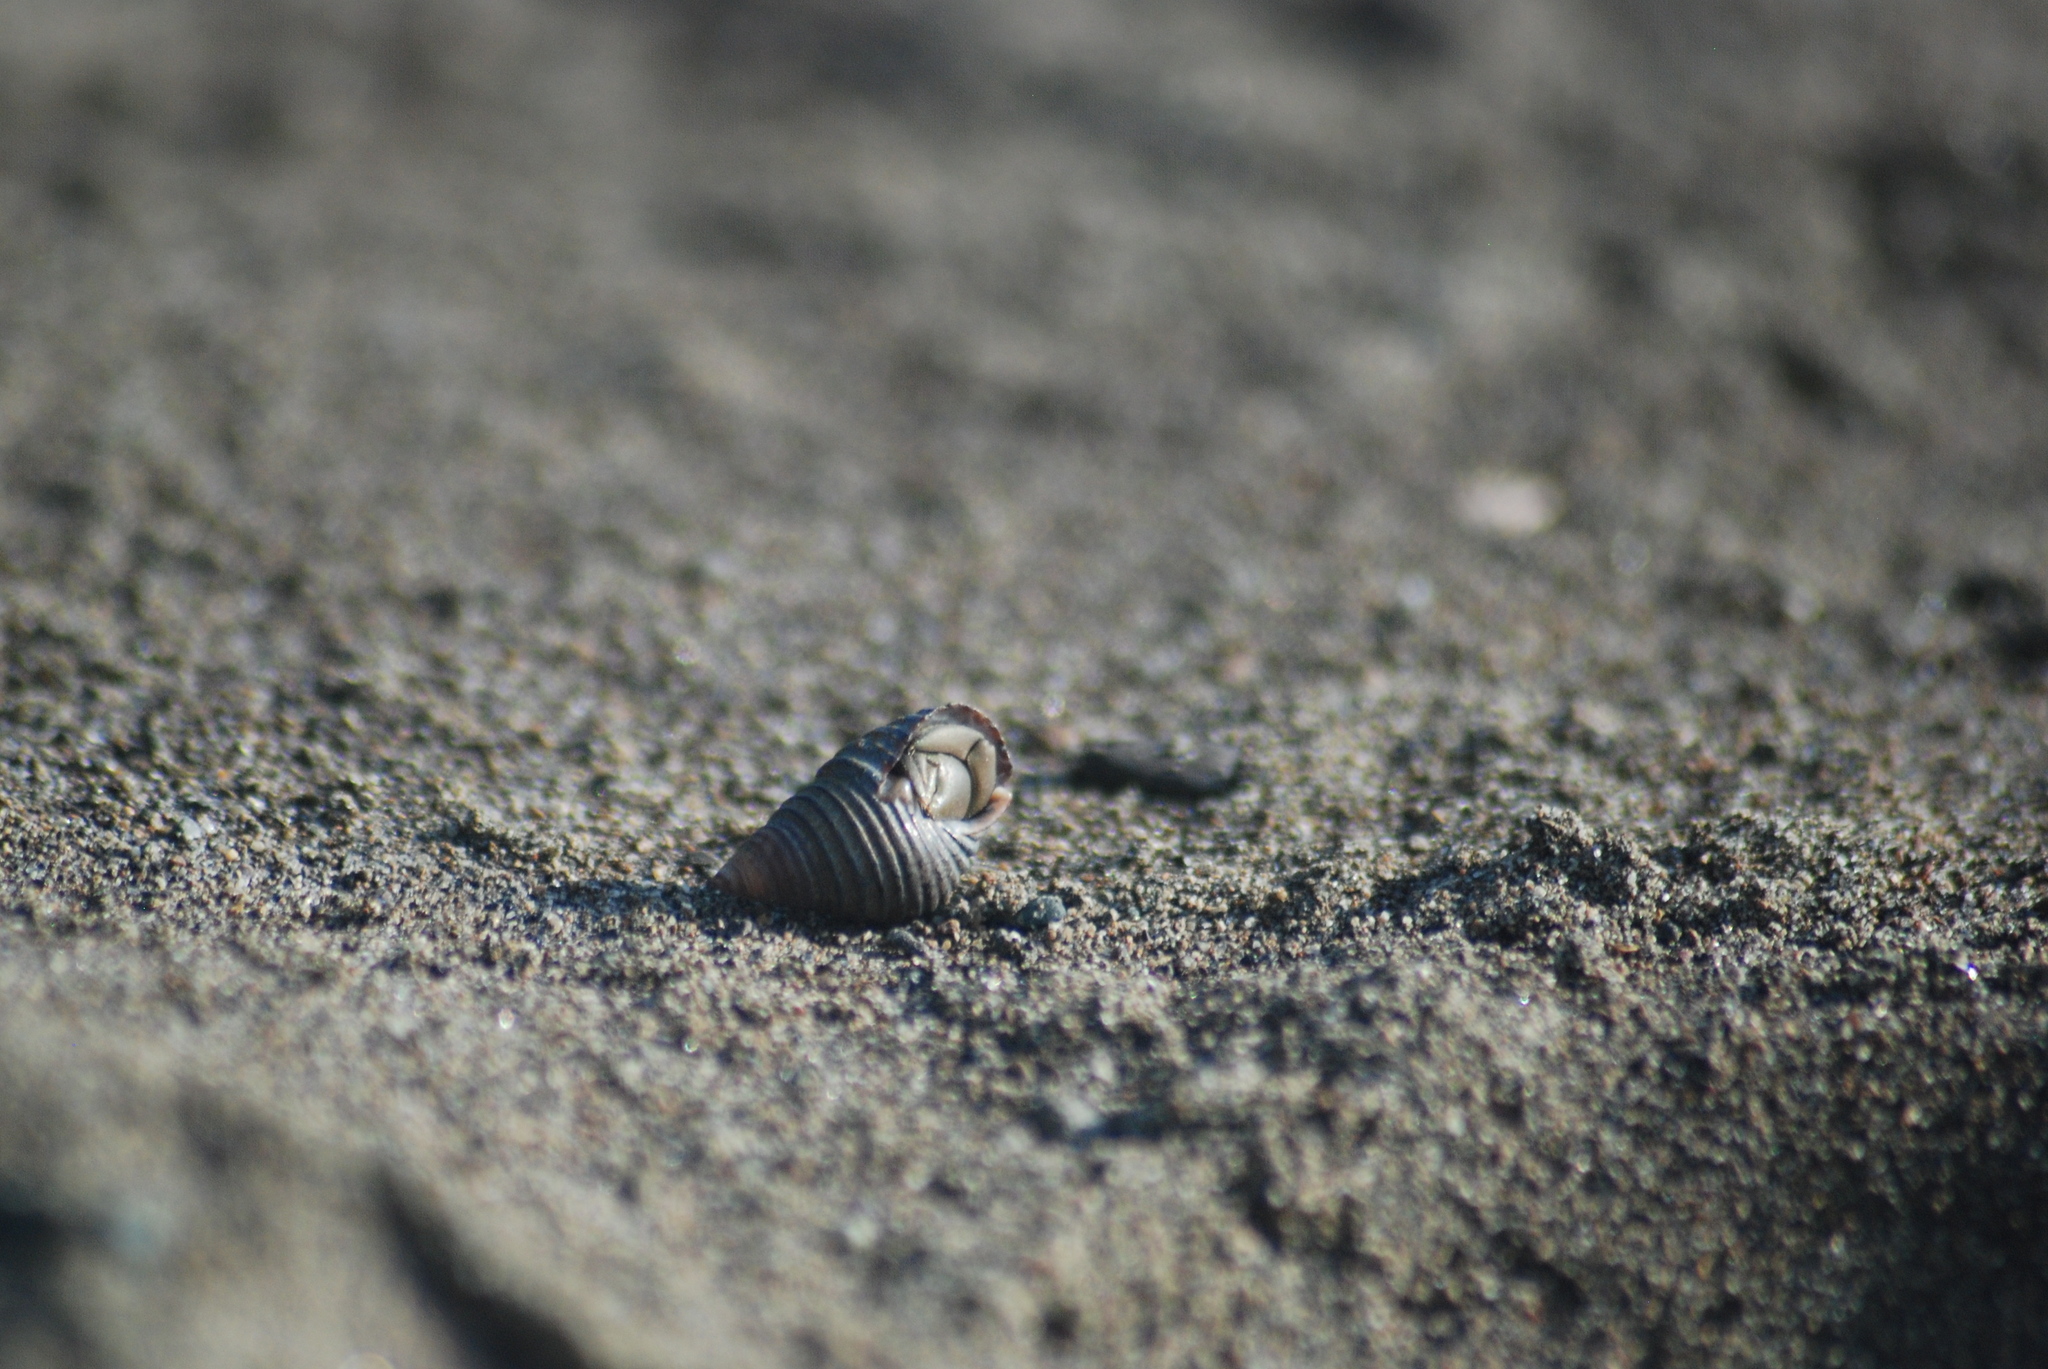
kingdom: Animalia
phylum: Arthropoda
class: Malacostraca
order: Decapoda
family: Coenobitidae
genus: Coenobita
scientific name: Coenobita compressus
